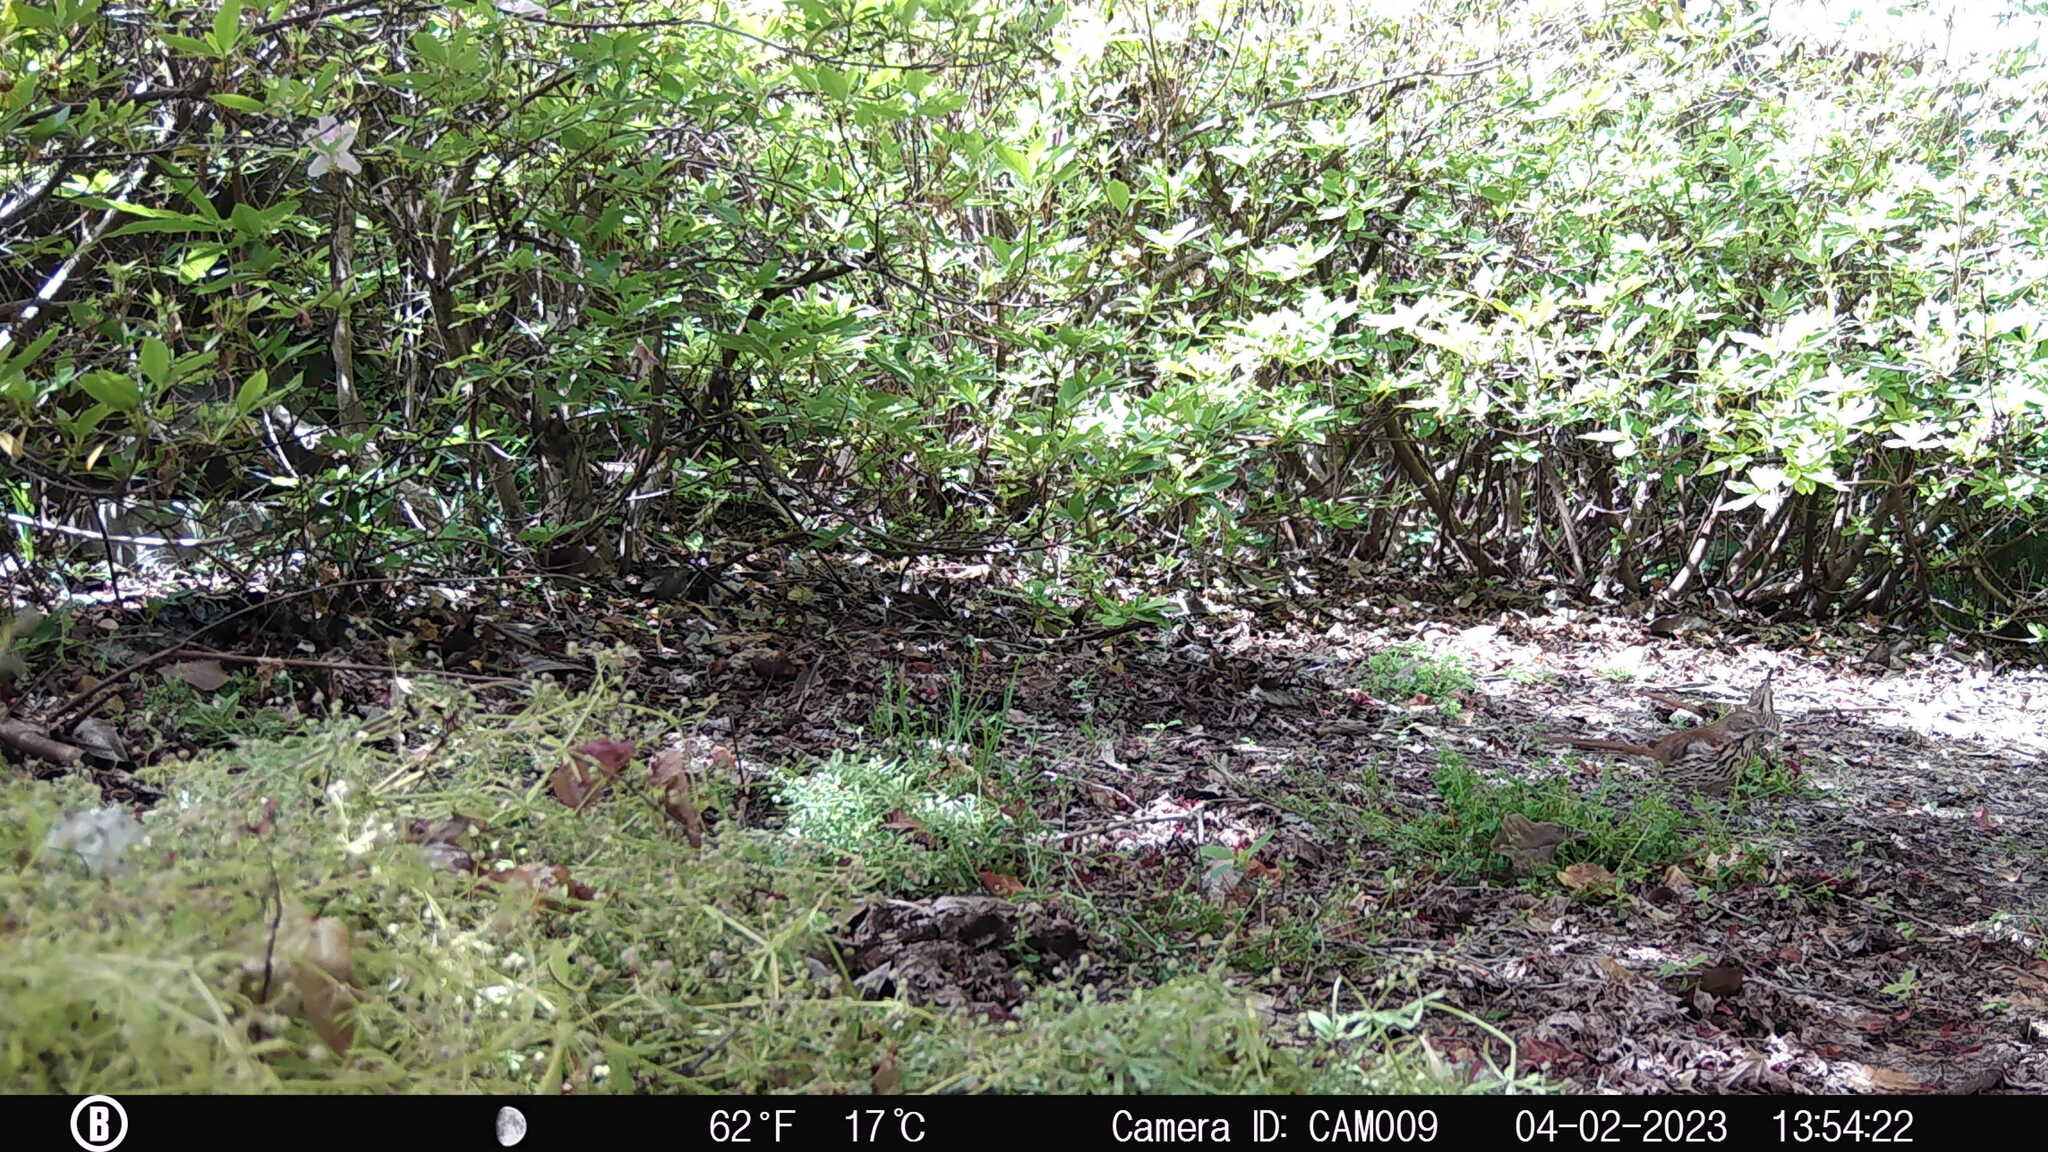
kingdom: Animalia
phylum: Chordata
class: Aves
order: Passeriformes
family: Mimidae
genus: Toxostoma
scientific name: Toxostoma rufum
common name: Brown thrasher
